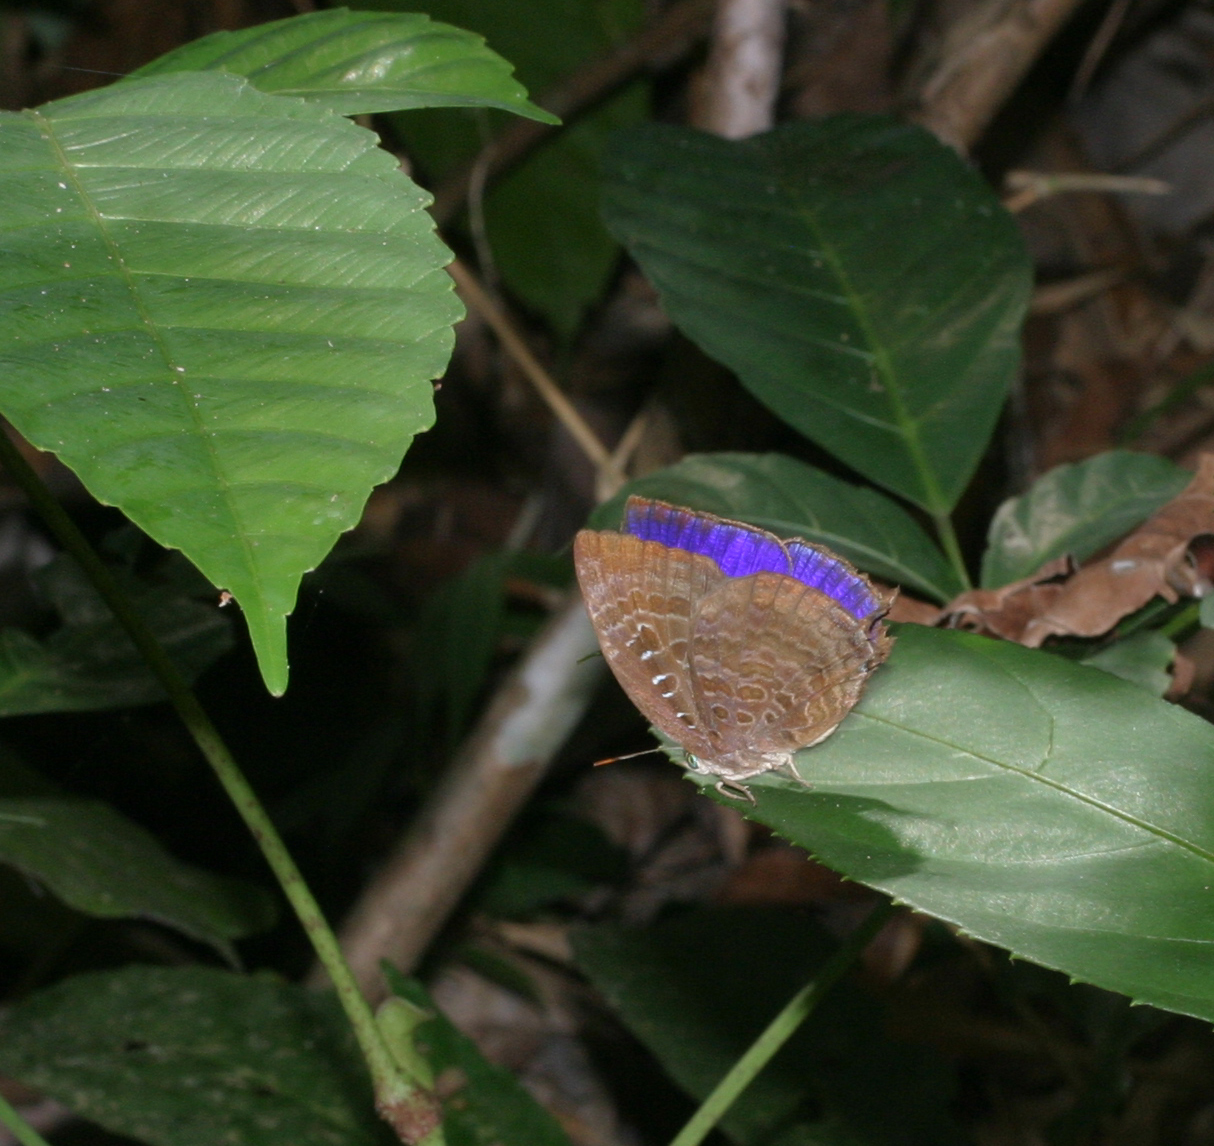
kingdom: Animalia
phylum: Arthropoda
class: Insecta
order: Lepidoptera
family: Lycaenidae
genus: Arhopala
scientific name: Arhopala centaurus
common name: Dull oak-blue
